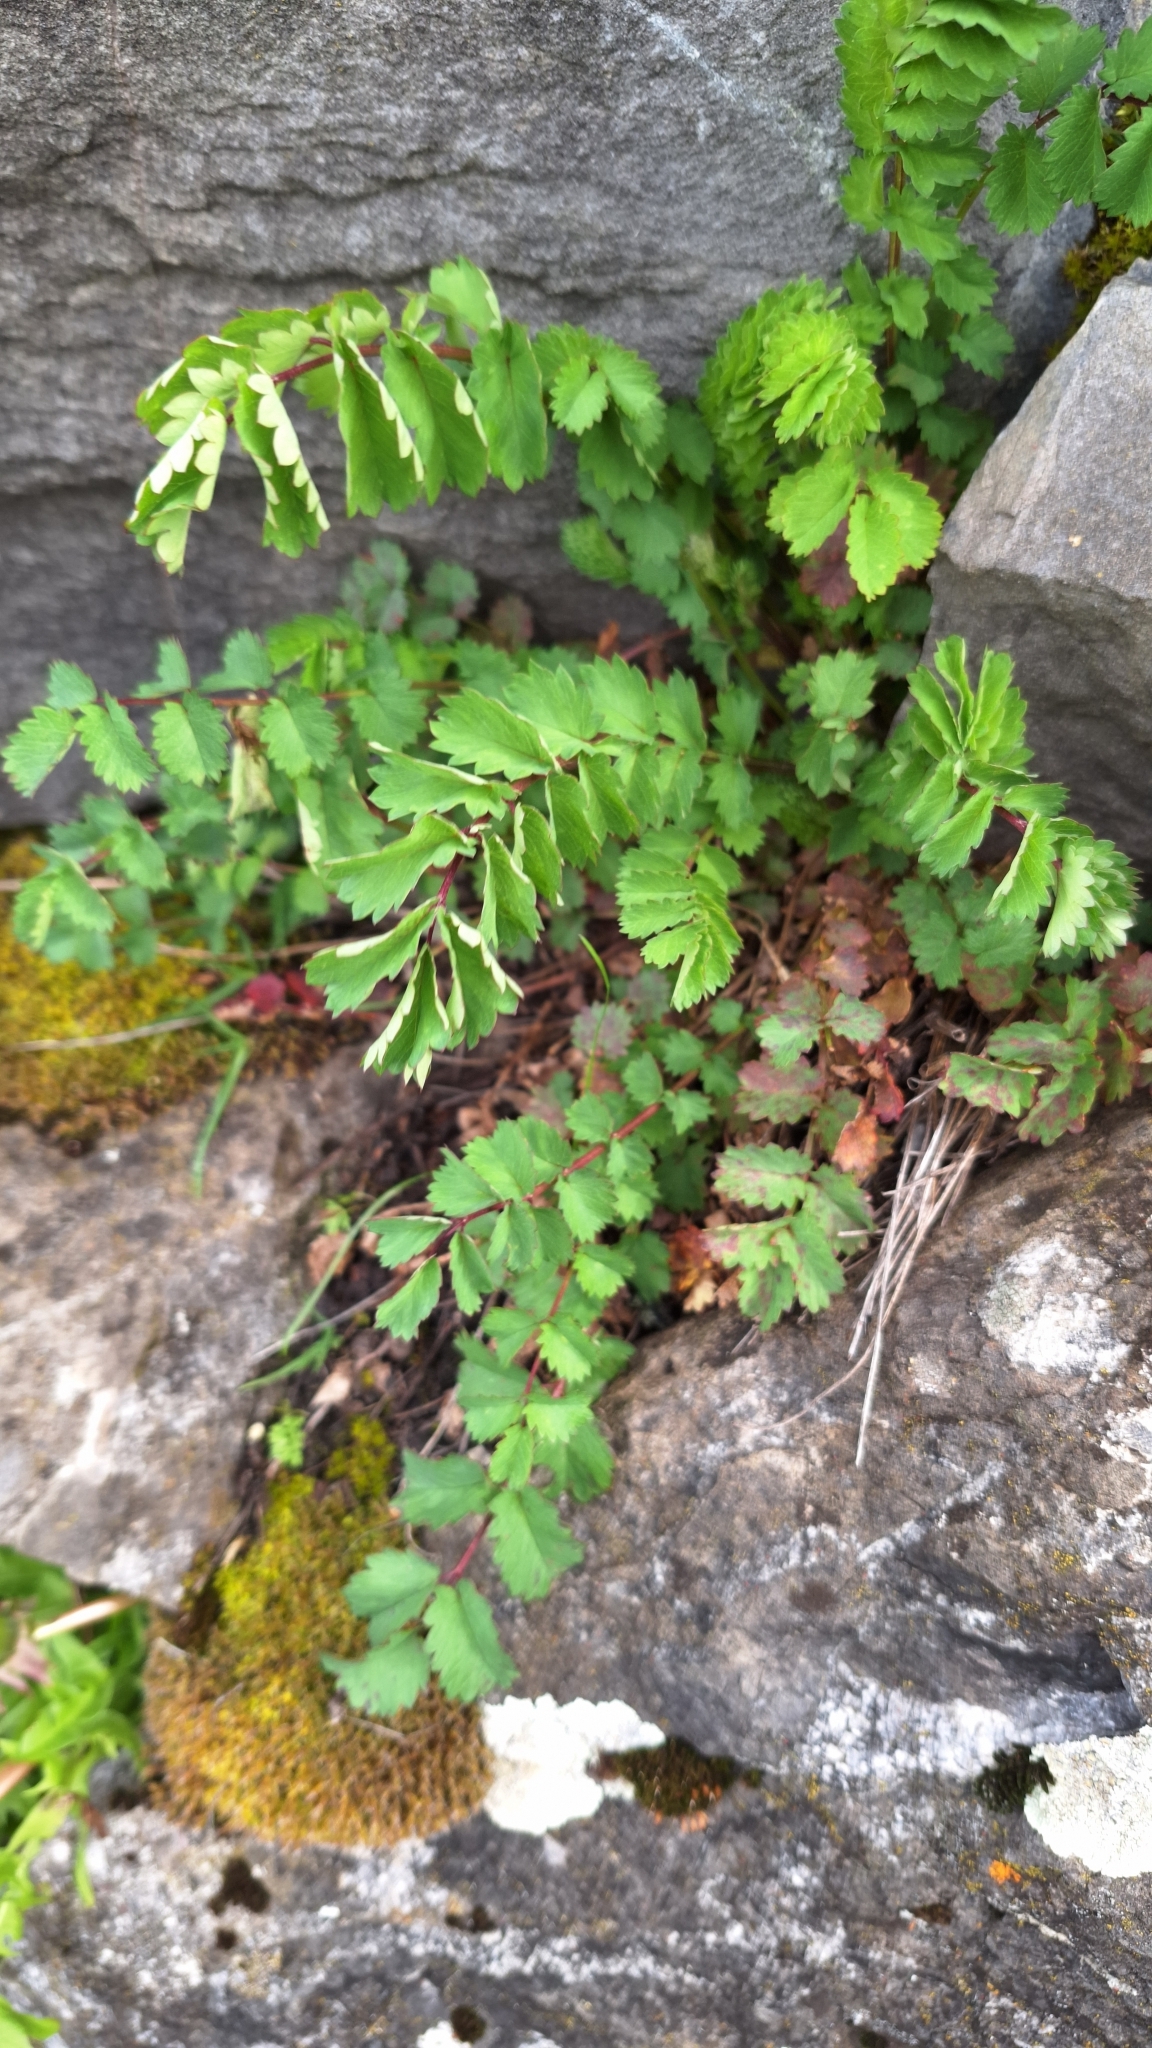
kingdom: Plantae
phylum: Tracheophyta
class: Magnoliopsida
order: Rosales
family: Rosaceae
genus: Poterium
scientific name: Poterium sanguisorba
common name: Salad burnet
